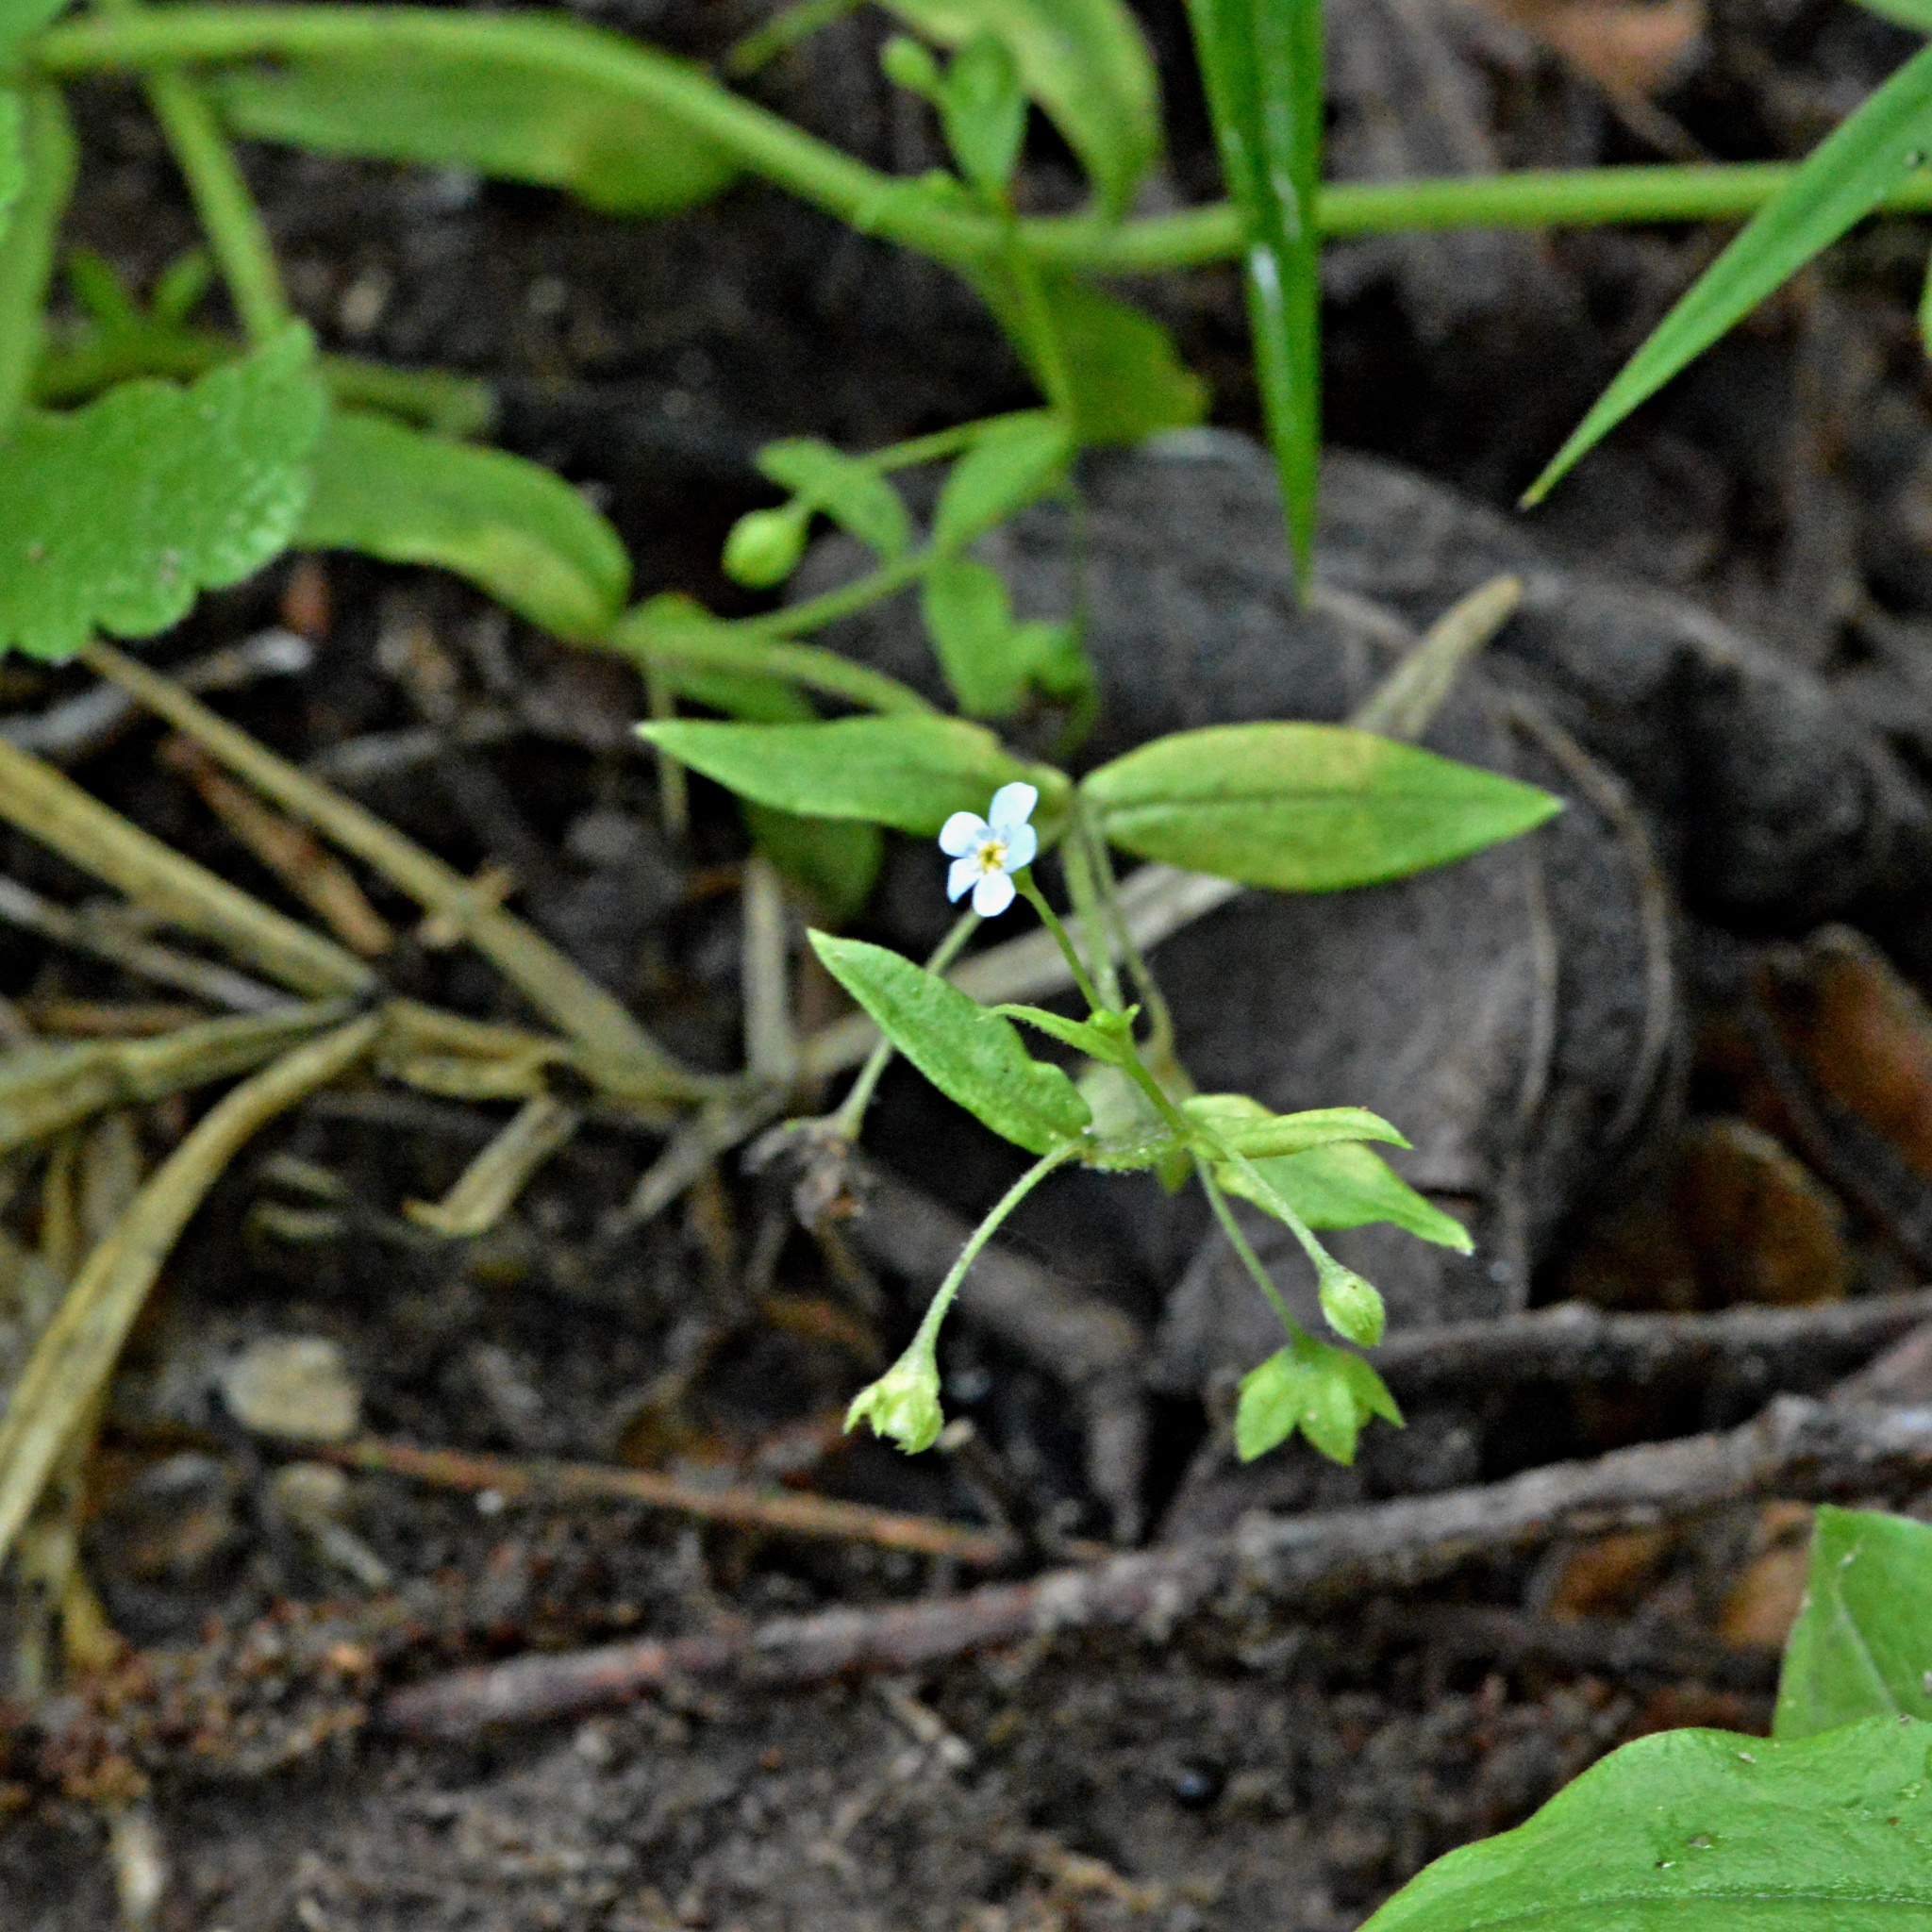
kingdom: Plantae
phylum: Tracheophyta
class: Magnoliopsida
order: Boraginales
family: Boraginaceae
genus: Memoremea
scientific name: Memoremea scorpioides
